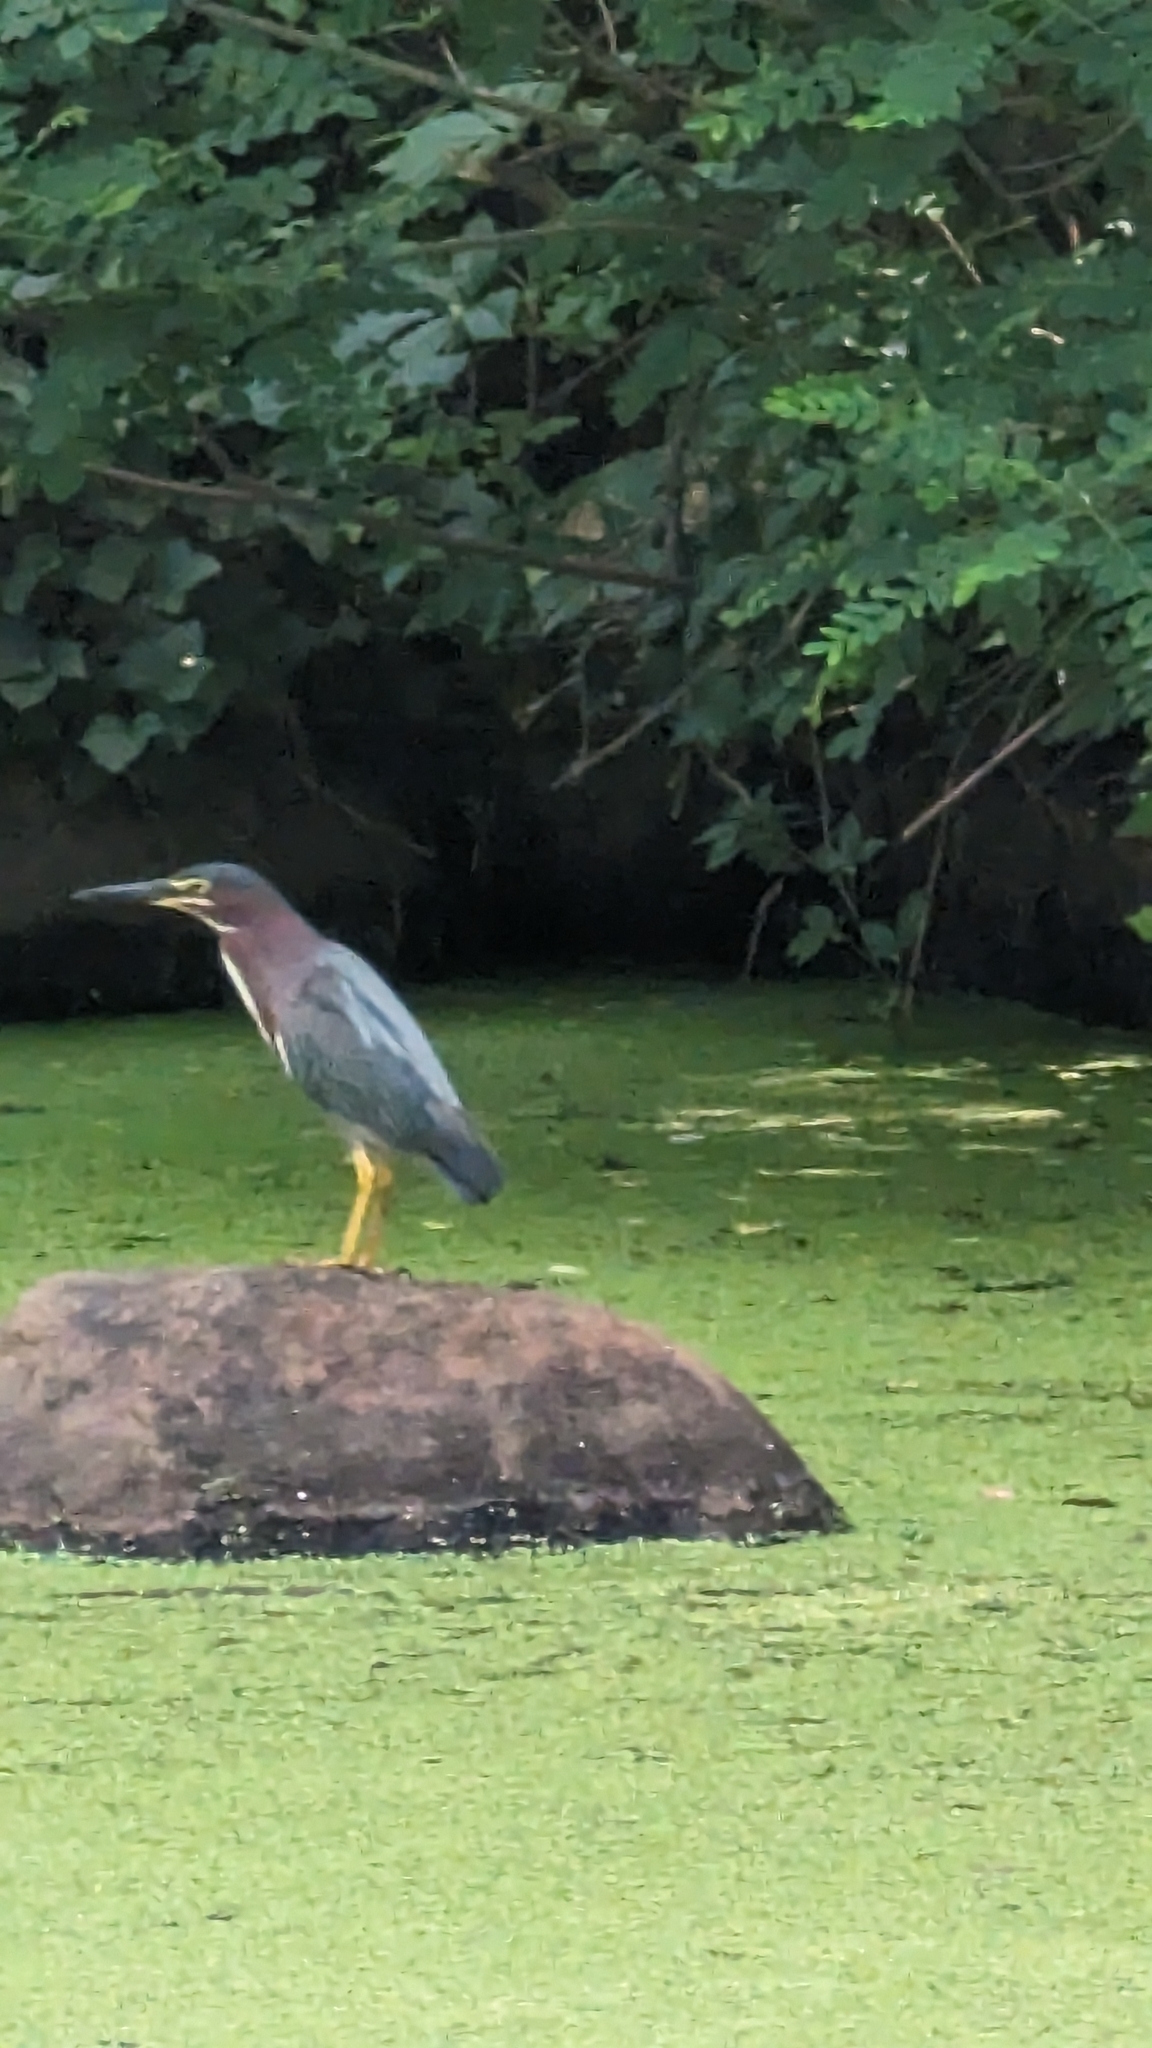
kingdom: Animalia
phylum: Chordata
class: Aves
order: Pelecaniformes
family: Ardeidae
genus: Butorides
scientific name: Butorides virescens
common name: Green heron
